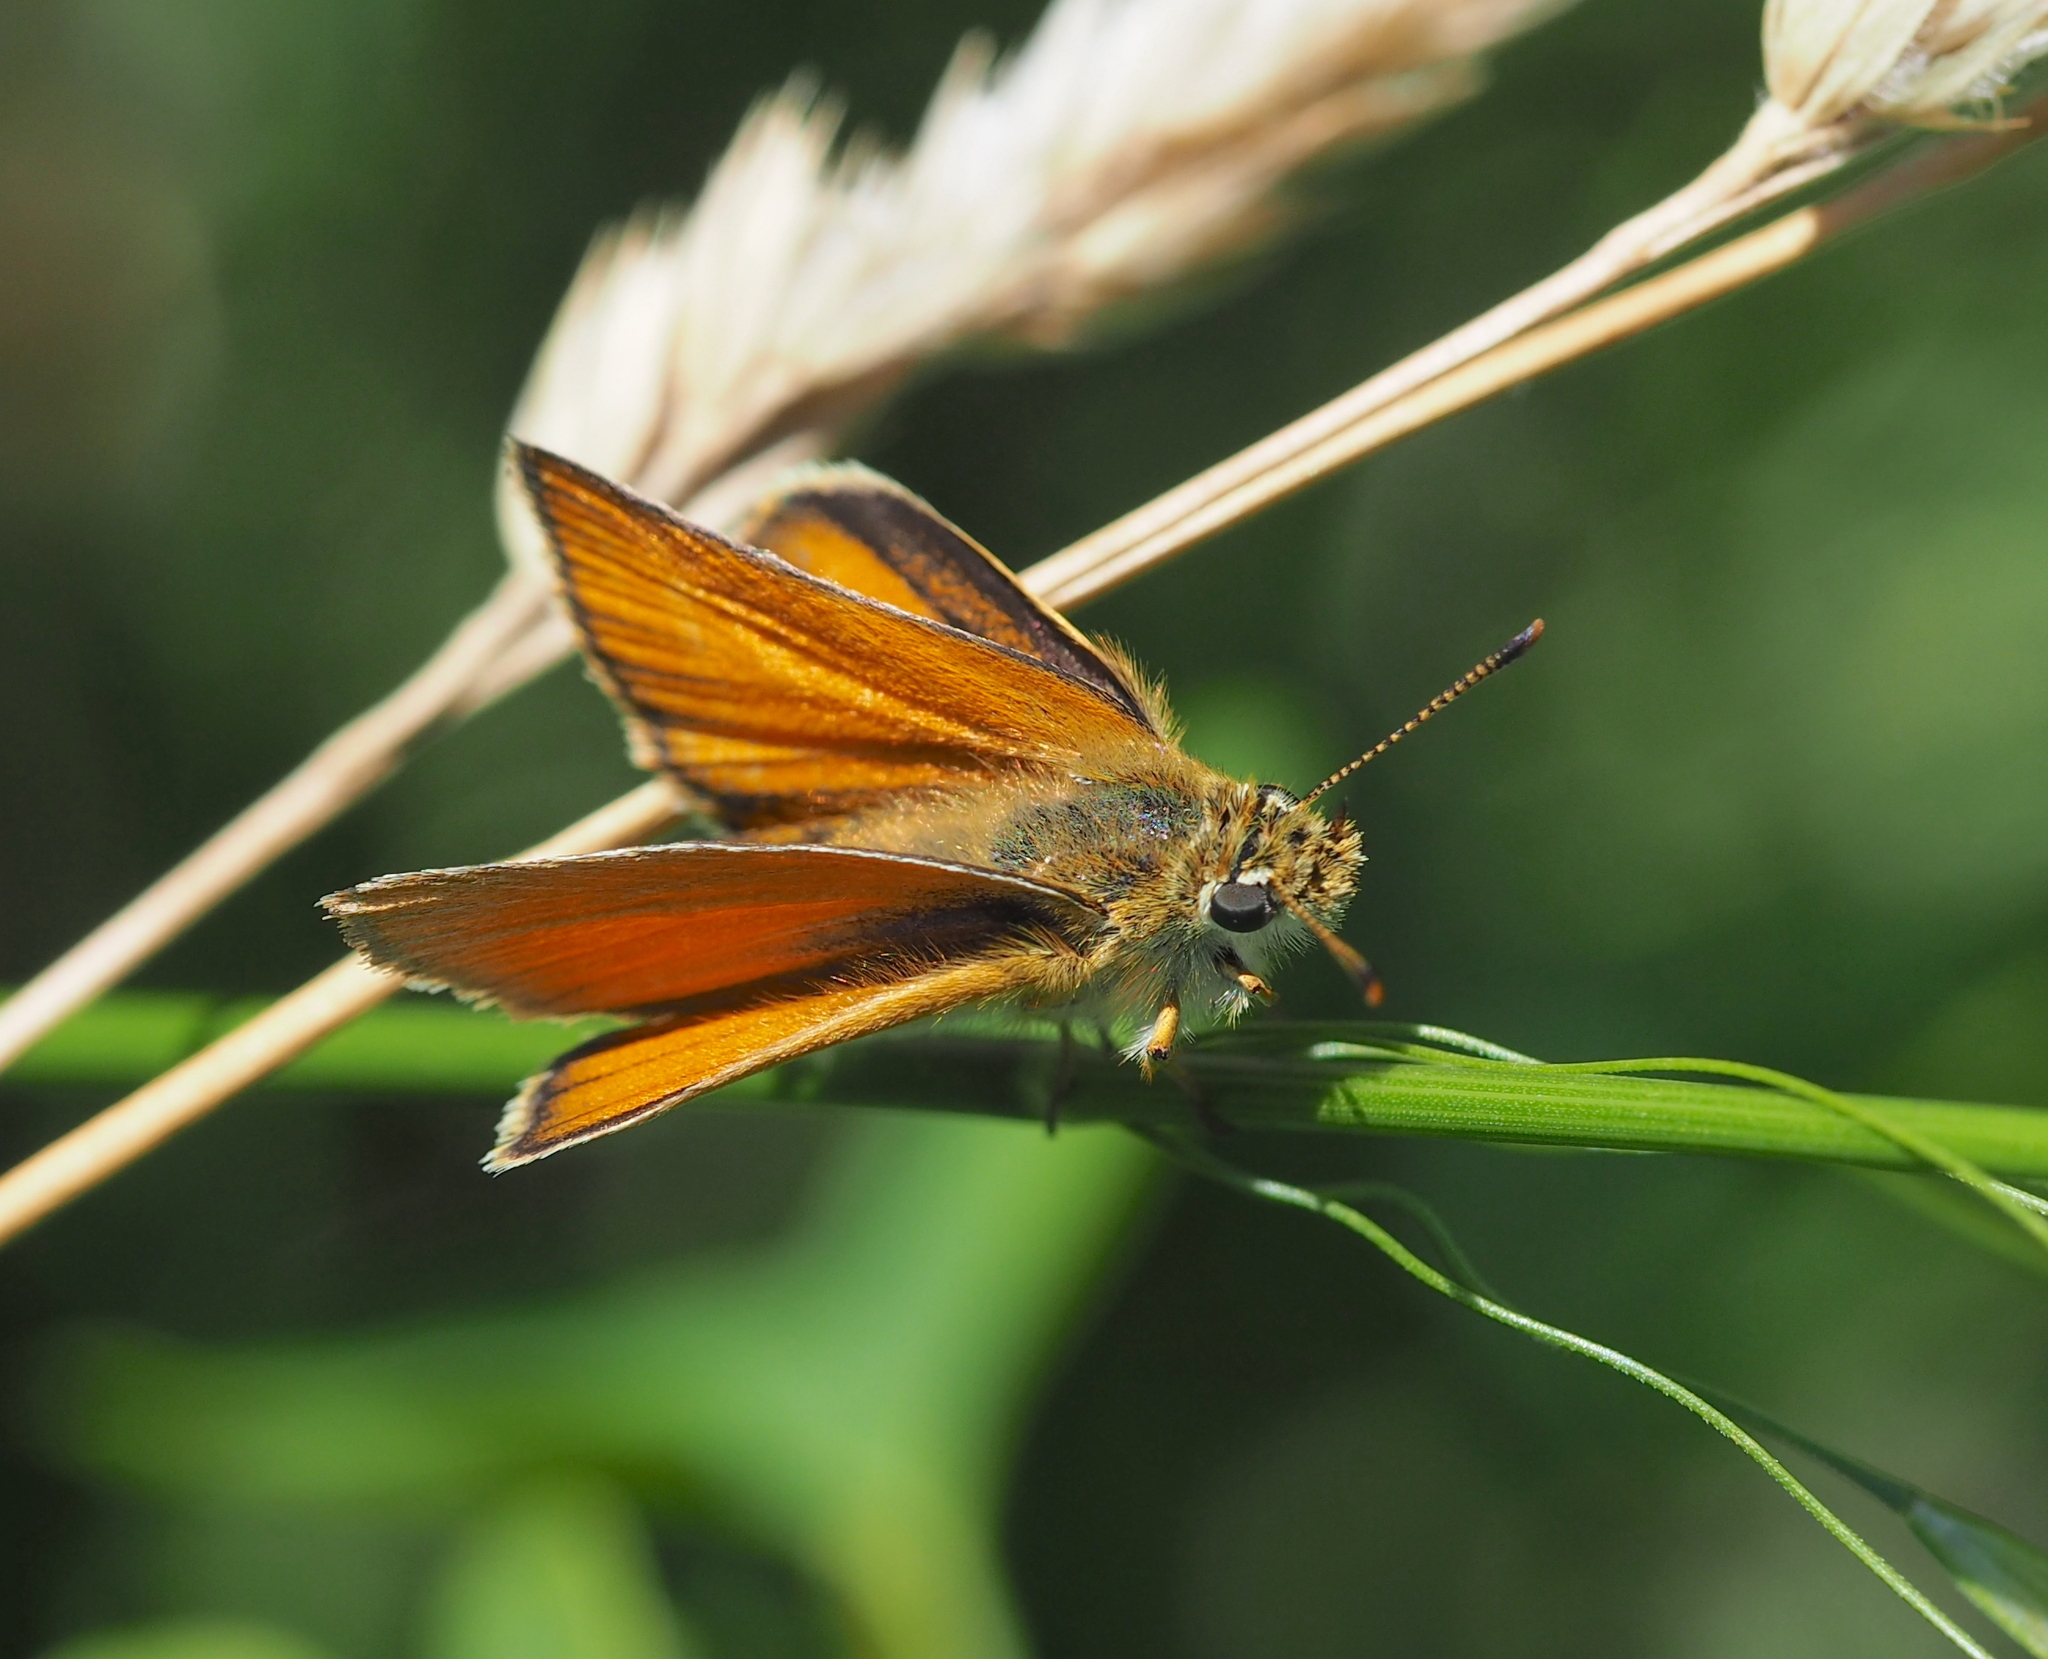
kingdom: Animalia
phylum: Arthropoda
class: Insecta
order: Lepidoptera
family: Hesperiidae
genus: Thymelicus
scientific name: Thymelicus sylvestris
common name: Small skipper
